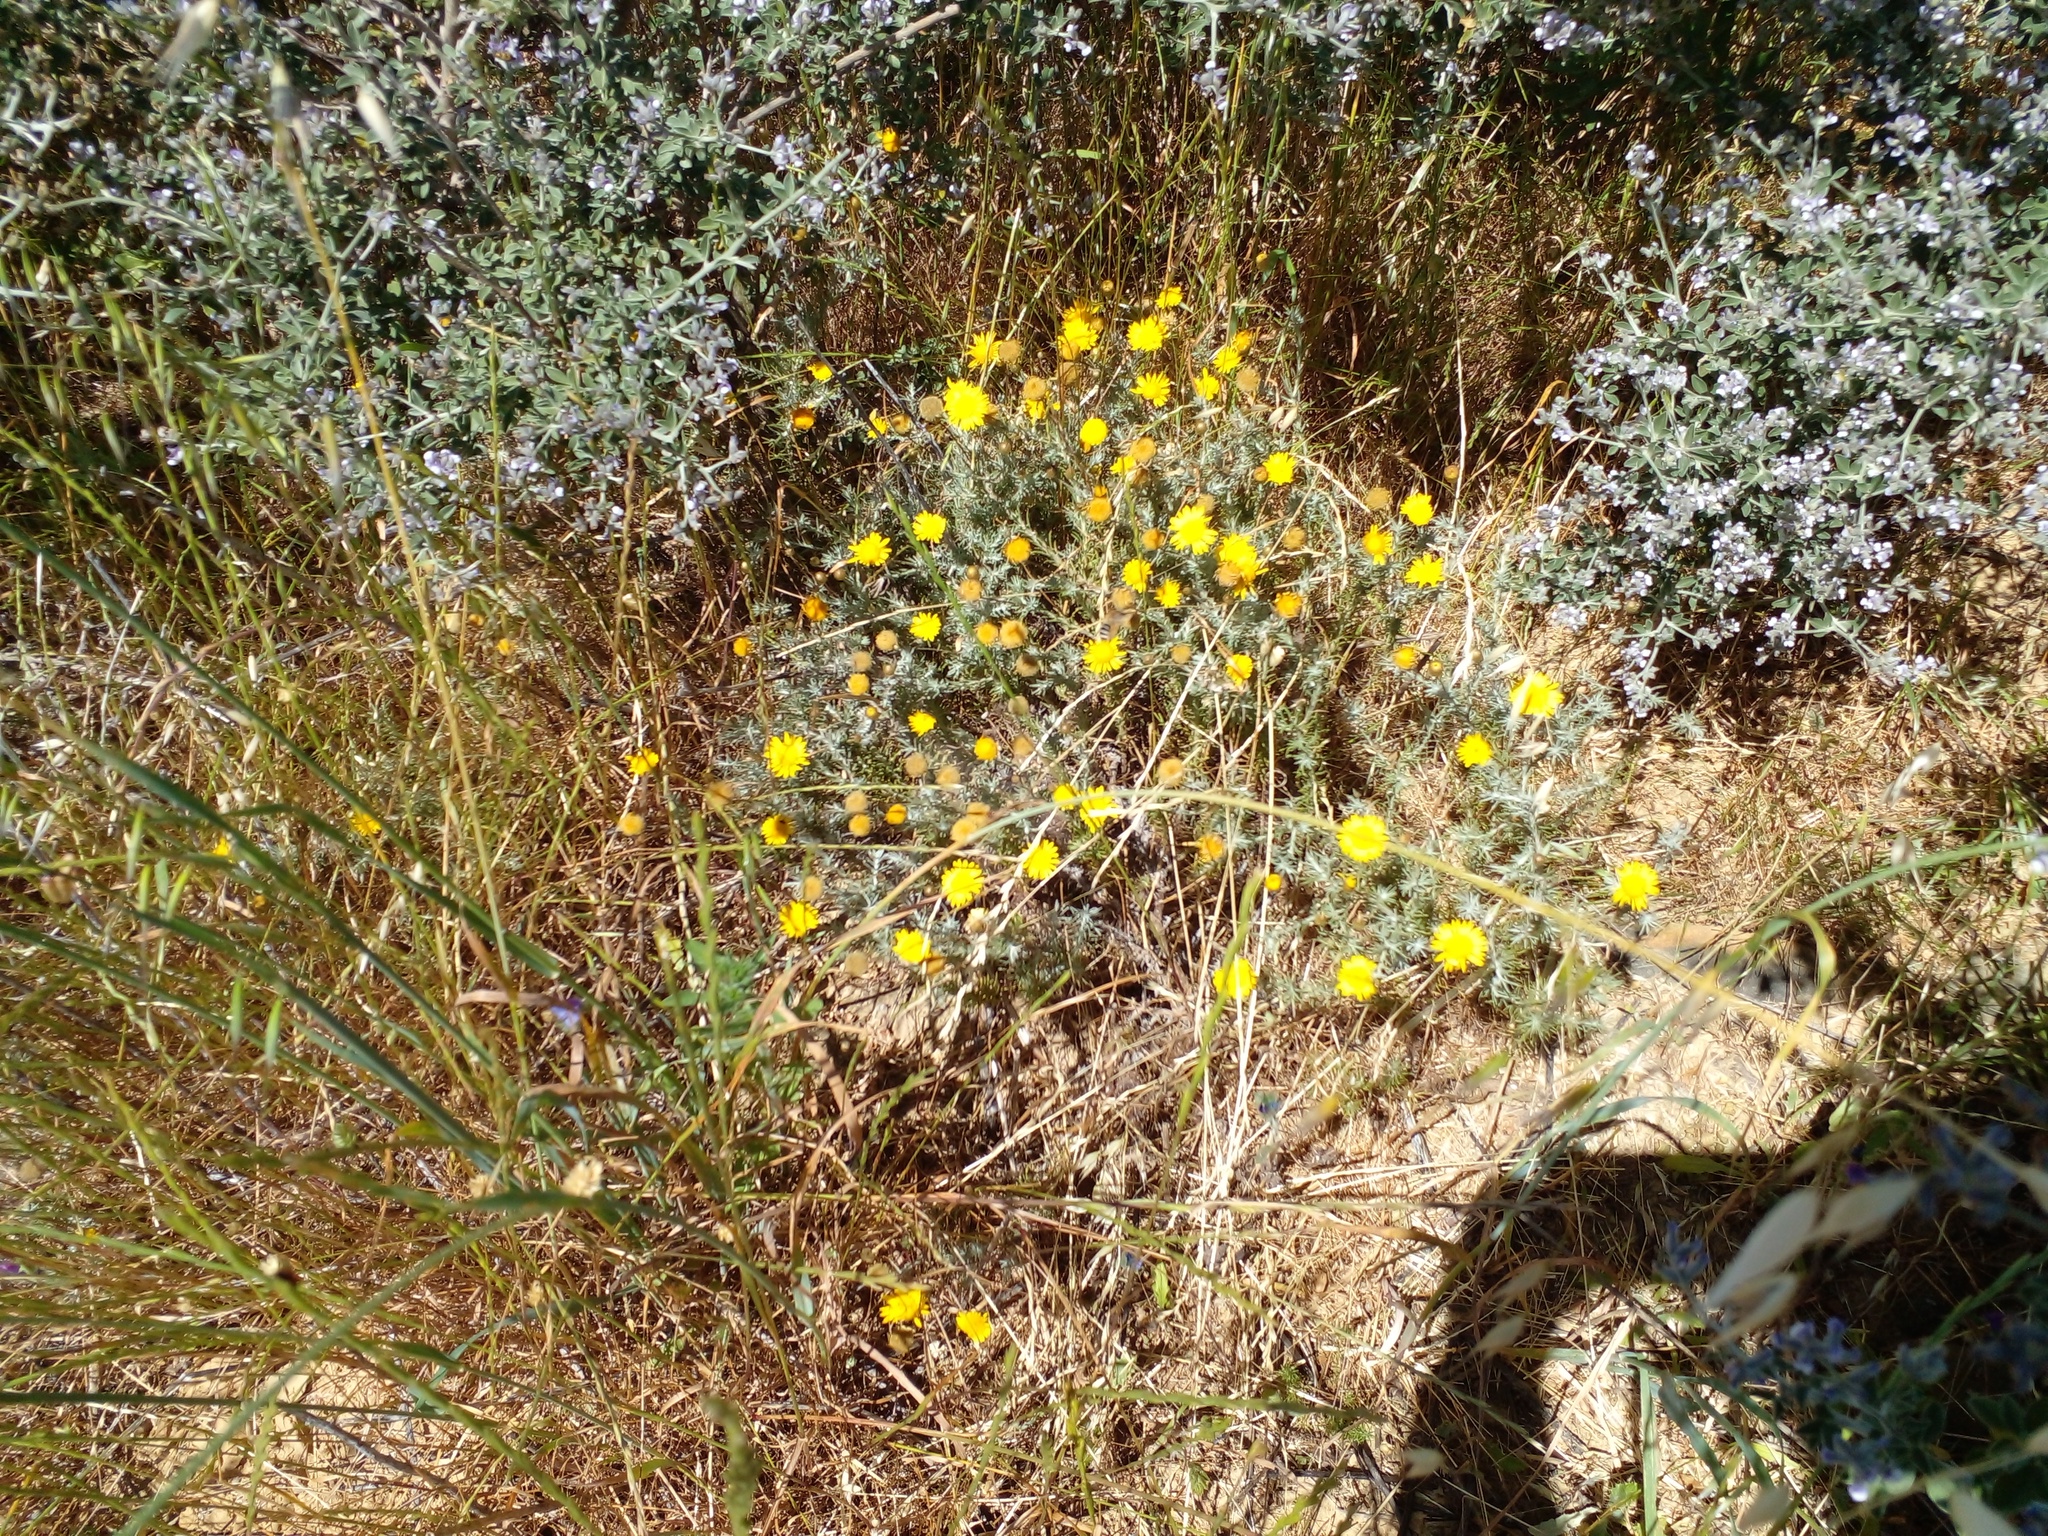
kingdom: Plantae
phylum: Tracheophyta
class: Magnoliopsida
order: Asterales
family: Asteraceae
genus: Leysera
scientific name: Leysera gnaphalodes
